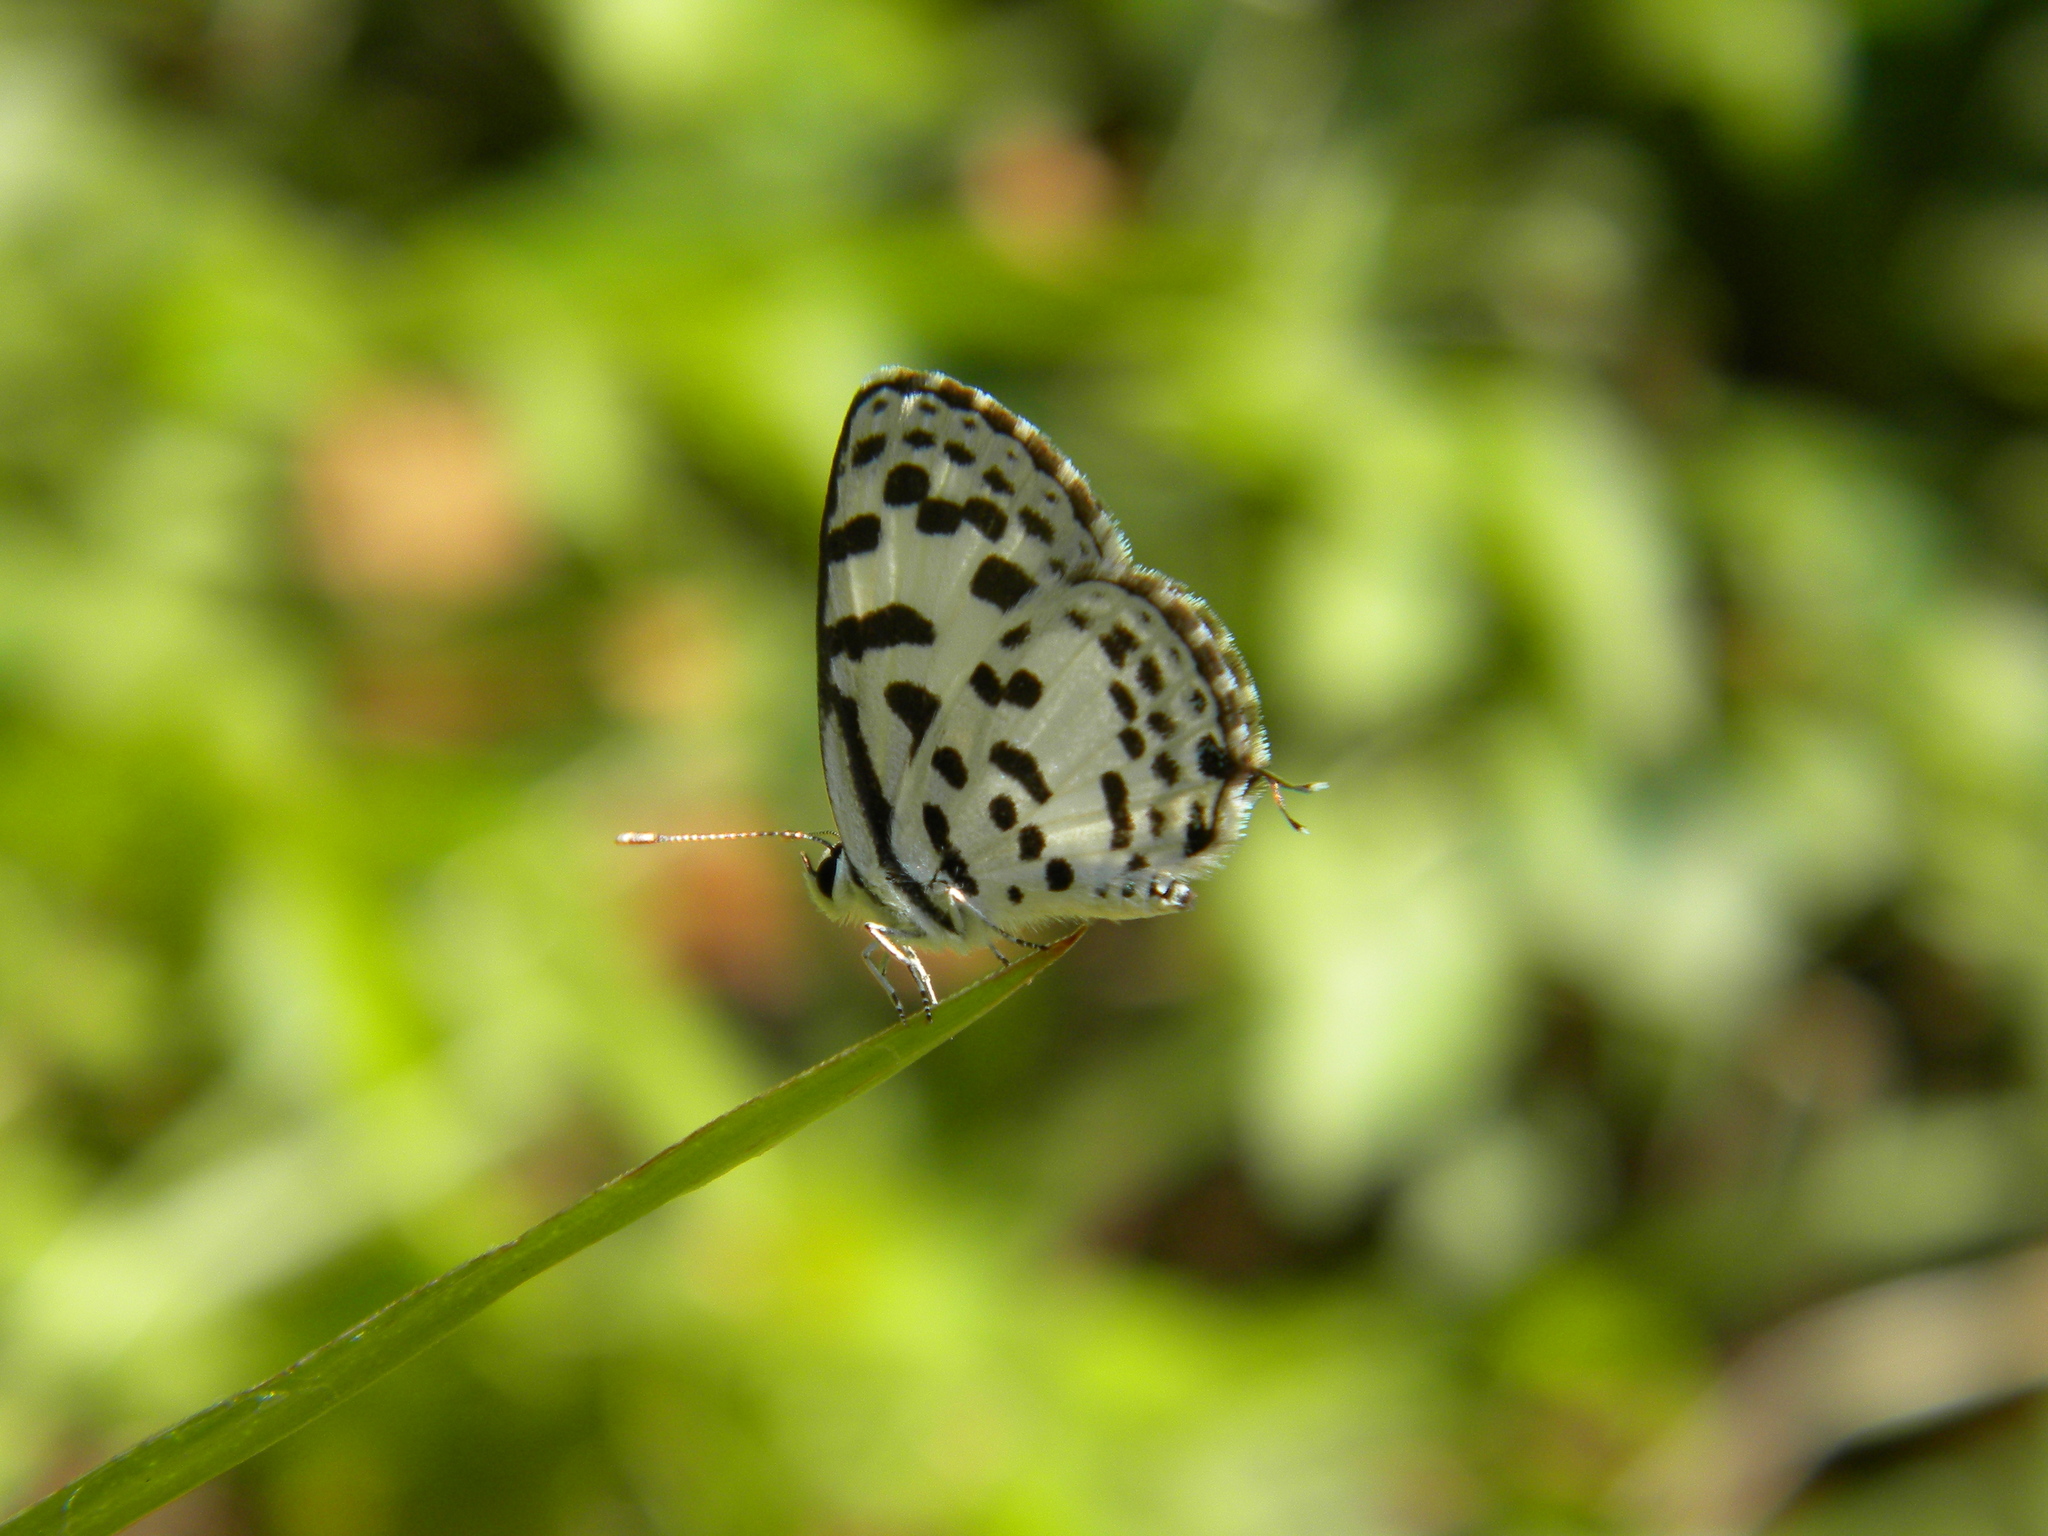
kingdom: Animalia
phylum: Arthropoda
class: Insecta
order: Lepidoptera
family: Lycaenidae
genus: Castalius
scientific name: Castalius rosimon
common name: Common pierrot
